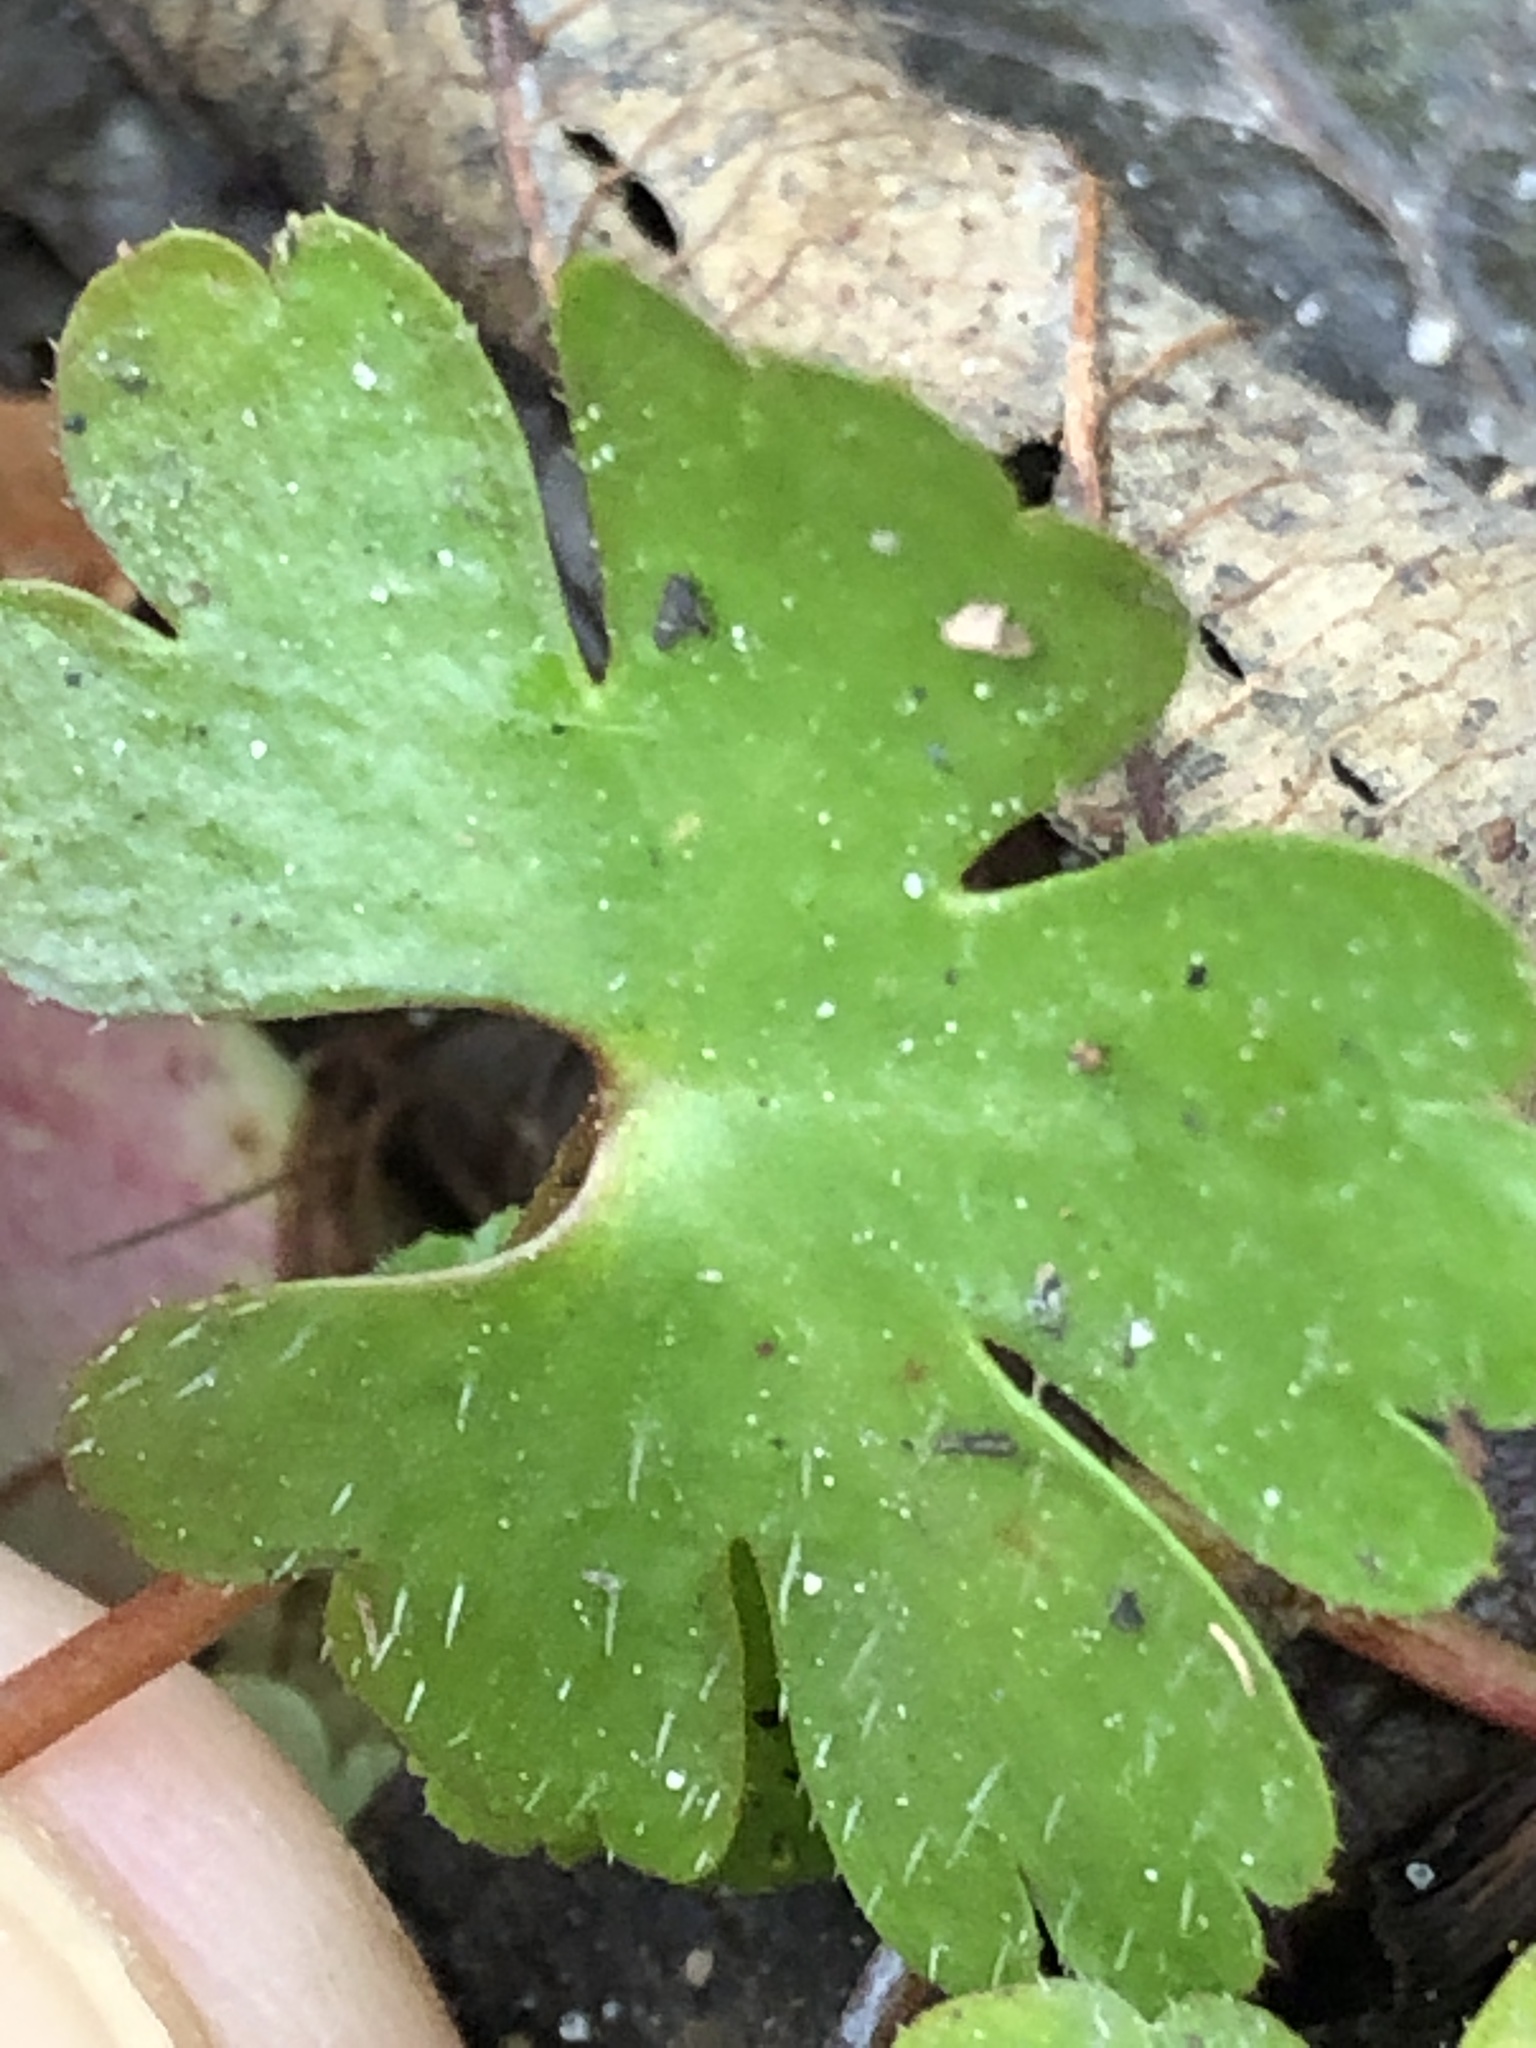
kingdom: Plantae
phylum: Tracheophyta
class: Magnoliopsida
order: Geraniales
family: Geraniaceae
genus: Geranium
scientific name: Geranium lucidum
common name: Shining crane's-bill
